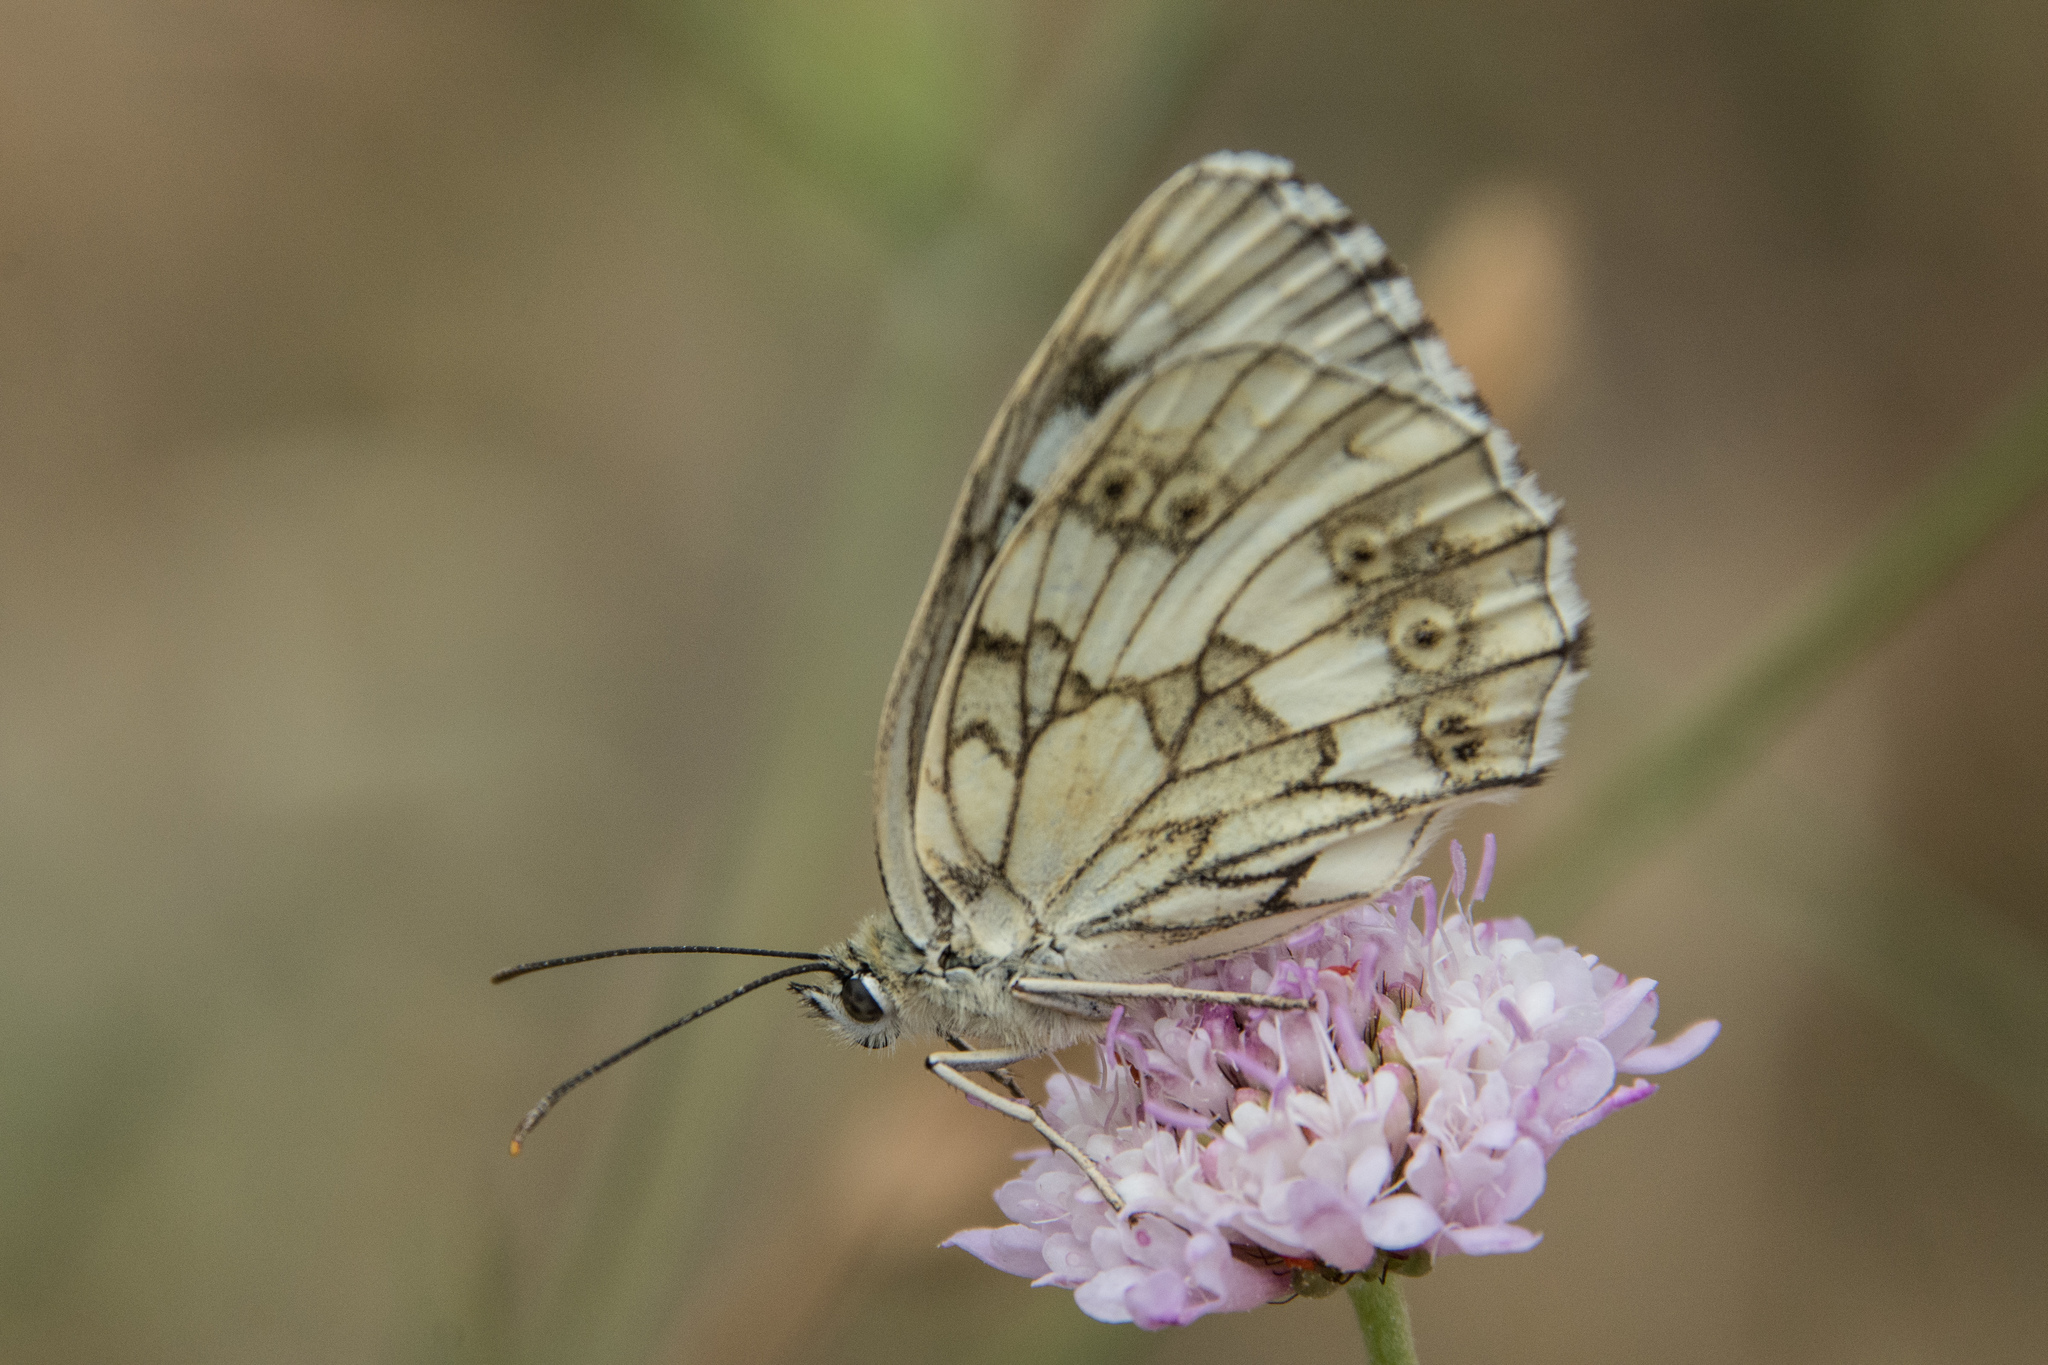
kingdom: Animalia
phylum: Arthropoda
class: Insecta
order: Lepidoptera
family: Nymphalidae
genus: Melanargia
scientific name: Melanargia galathea
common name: Marbled white
